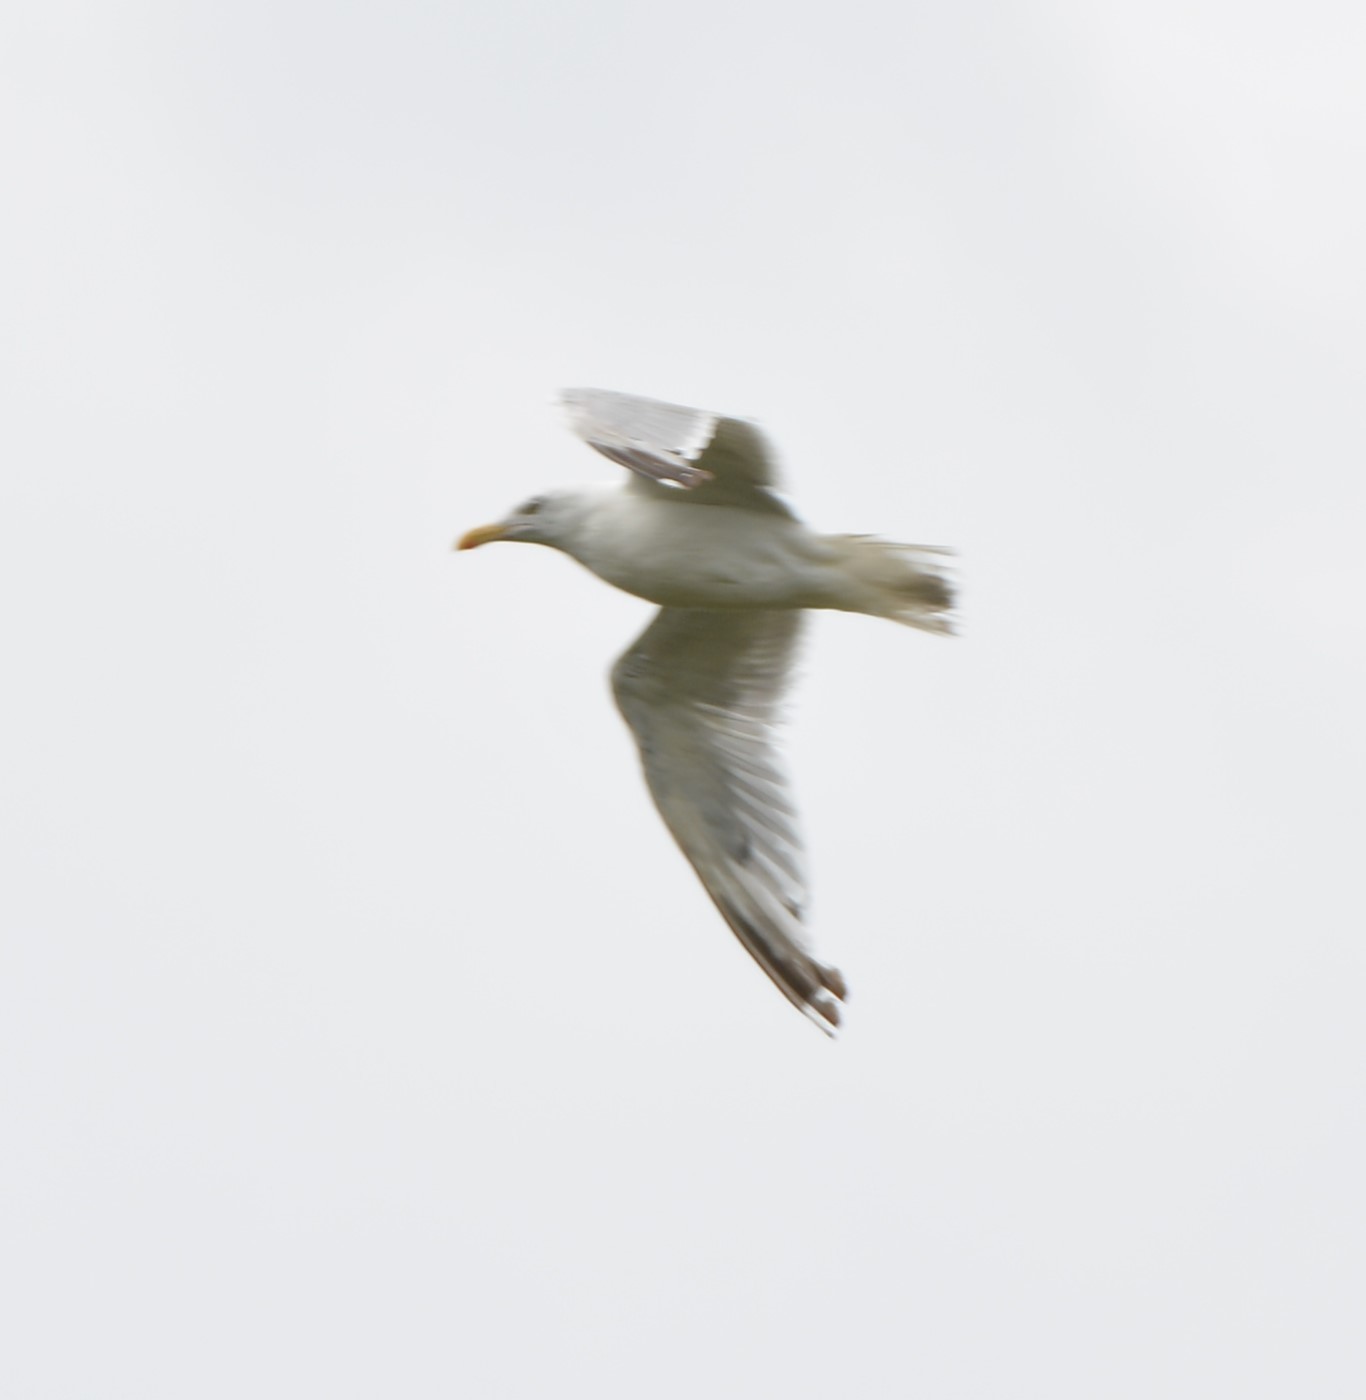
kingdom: Animalia
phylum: Chordata
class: Aves
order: Charadriiformes
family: Laridae
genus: Larus
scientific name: Larus argentatus
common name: Herring gull
